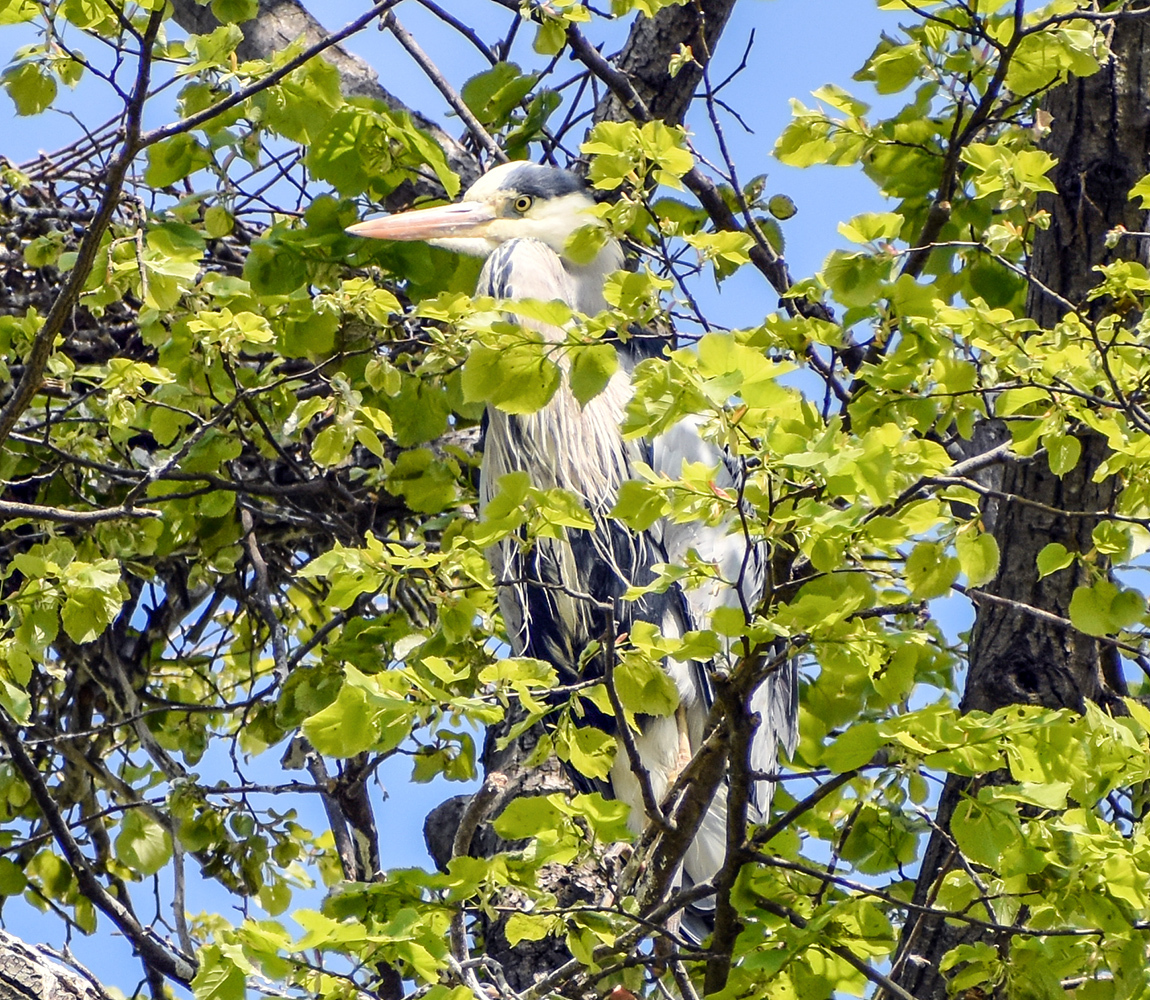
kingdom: Animalia
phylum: Chordata
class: Aves
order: Pelecaniformes
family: Ardeidae
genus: Ardea
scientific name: Ardea cinerea
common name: Grey heron
